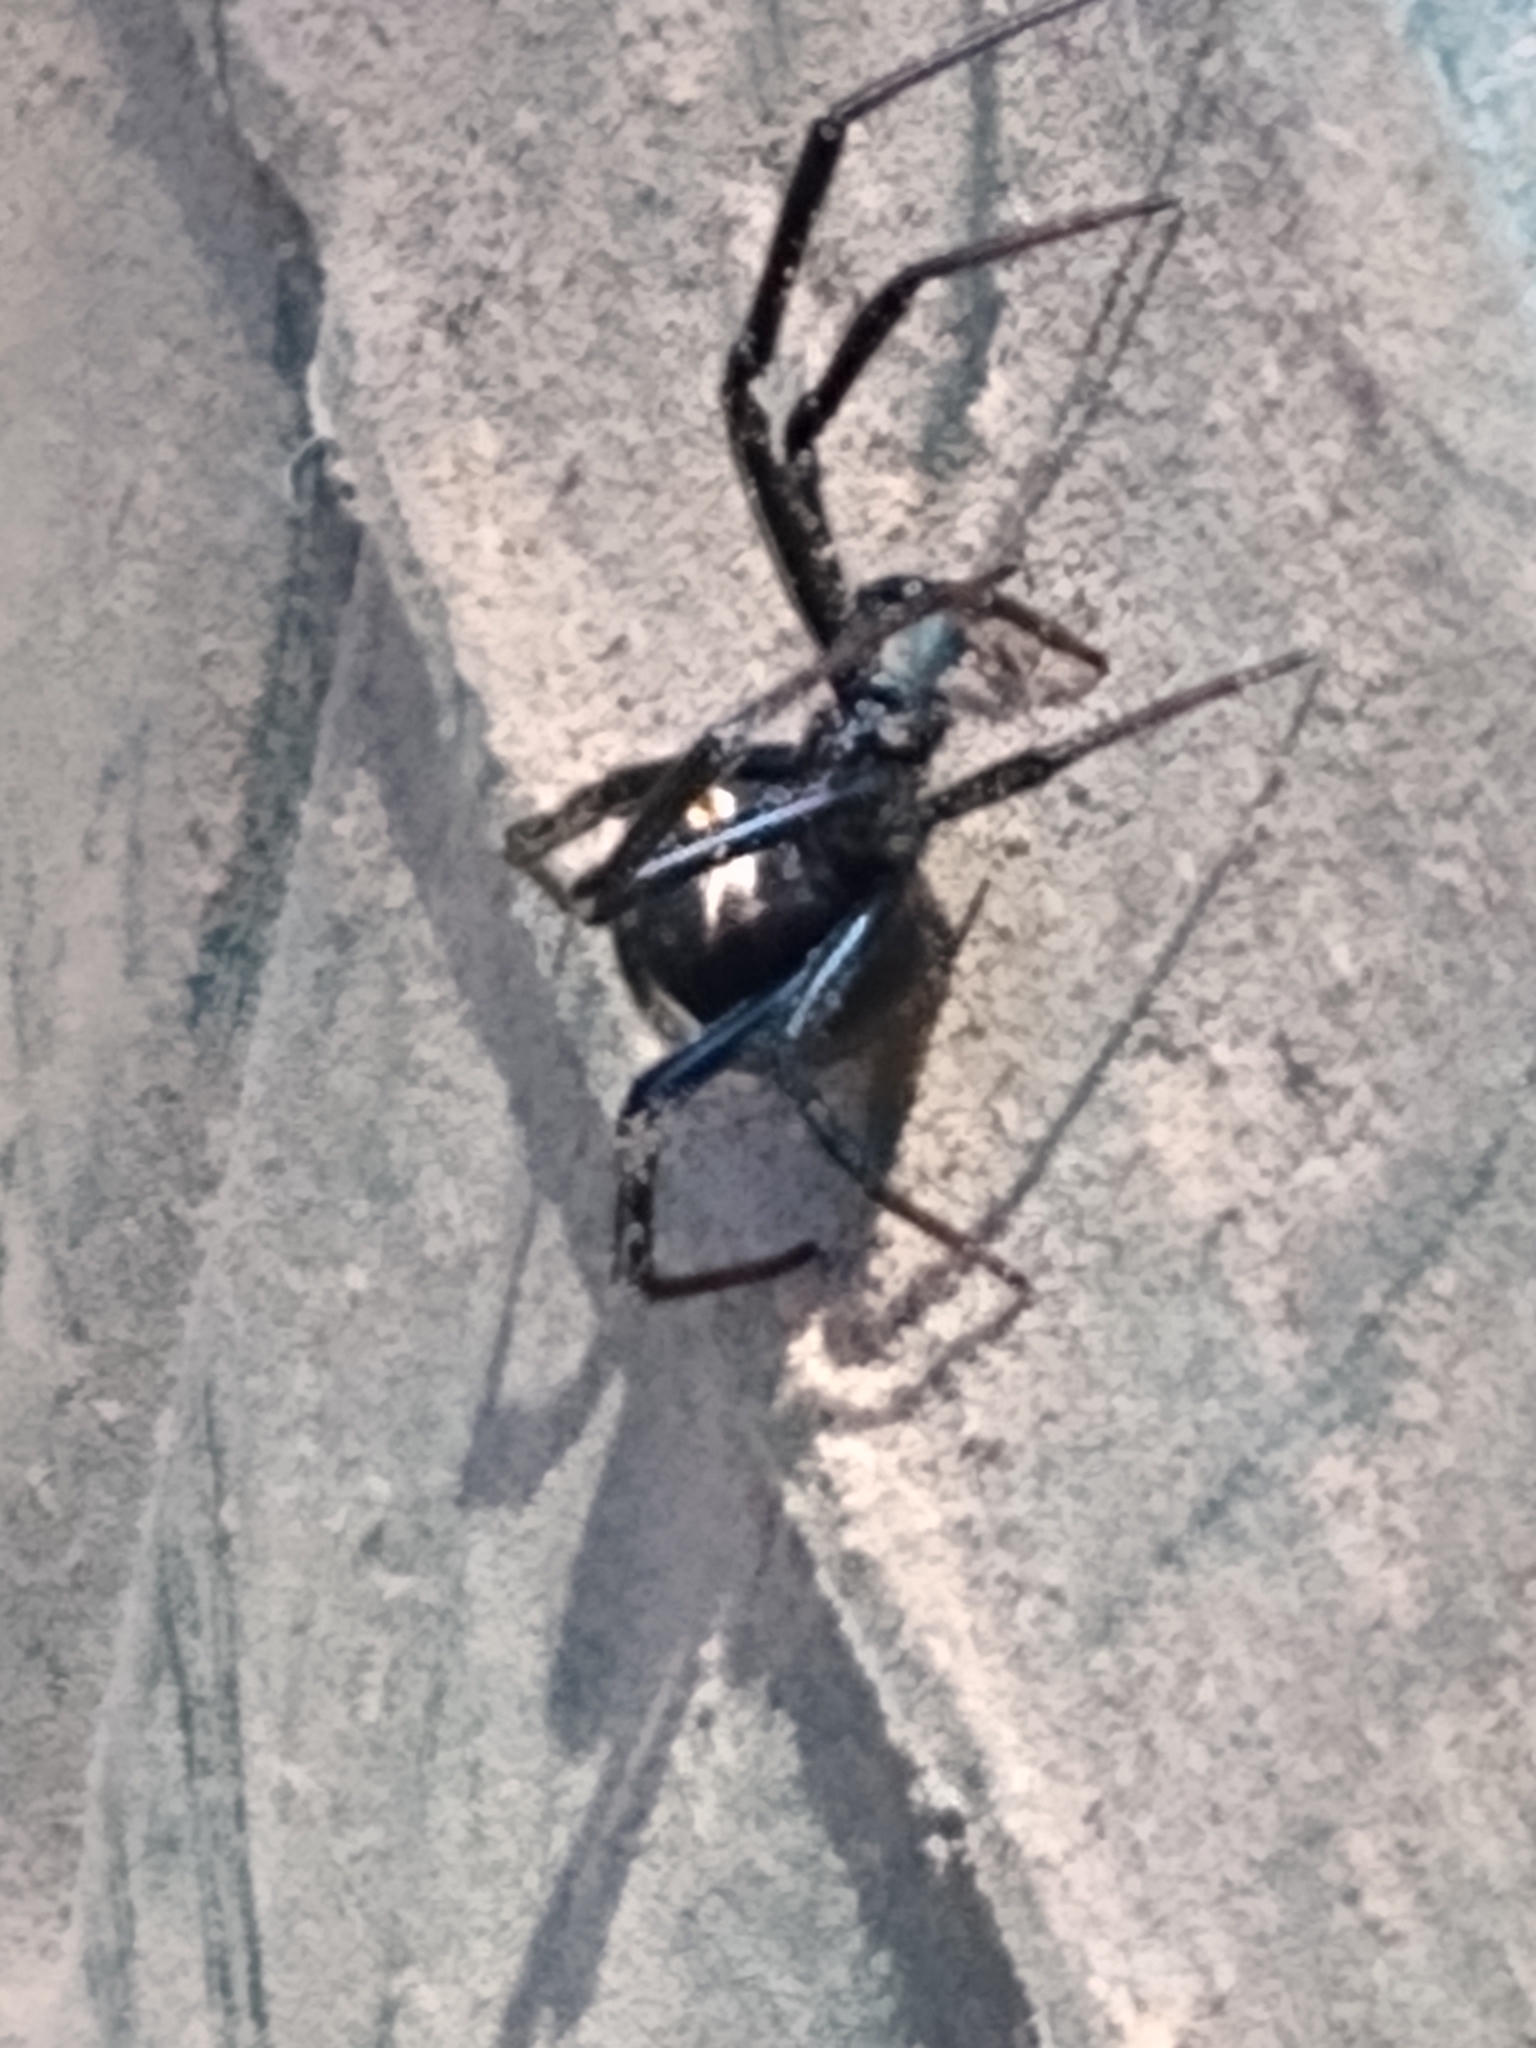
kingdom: Animalia
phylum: Arthropoda
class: Arachnida
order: Araneae
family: Theridiidae
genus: Latrodectus
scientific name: Latrodectus hesperus
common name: Western black widow
